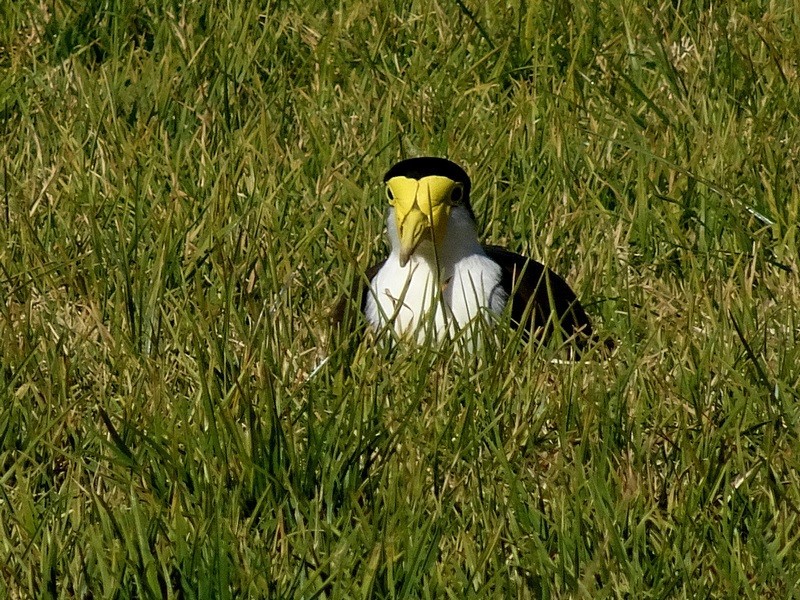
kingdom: Animalia
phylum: Chordata
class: Aves
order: Charadriiformes
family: Charadriidae
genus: Vanellus
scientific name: Vanellus miles
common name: Masked lapwing
